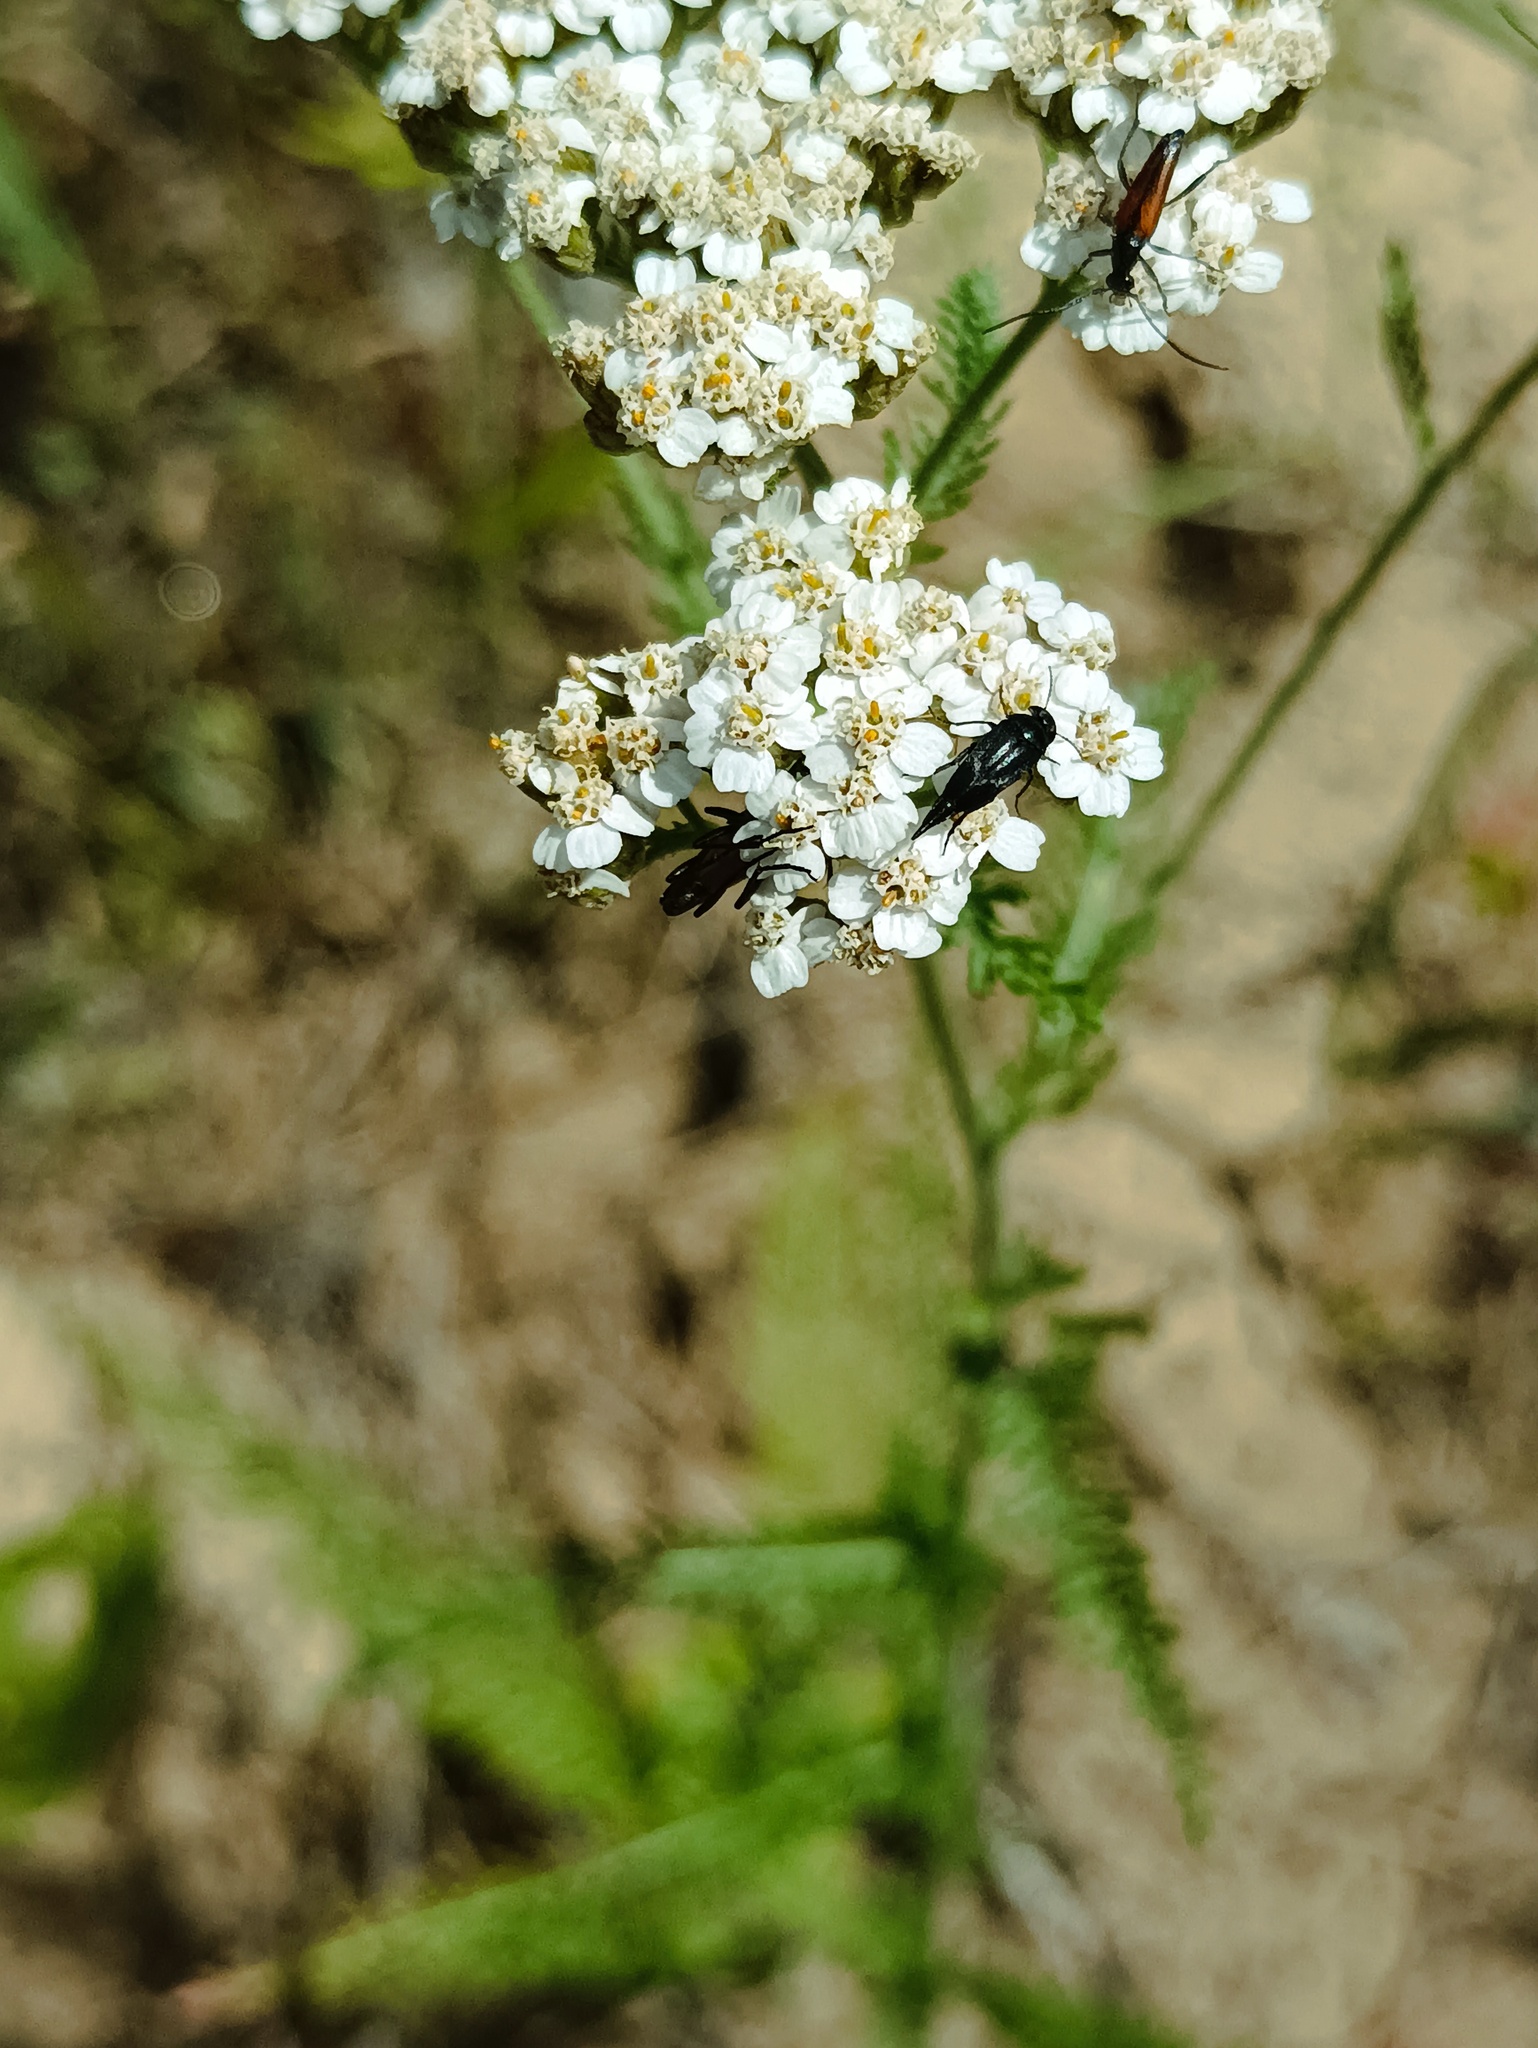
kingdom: Animalia
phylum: Arthropoda
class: Insecta
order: Coleoptera
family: Cerambycidae
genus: Stenurella
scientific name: Stenurella bifasciata
